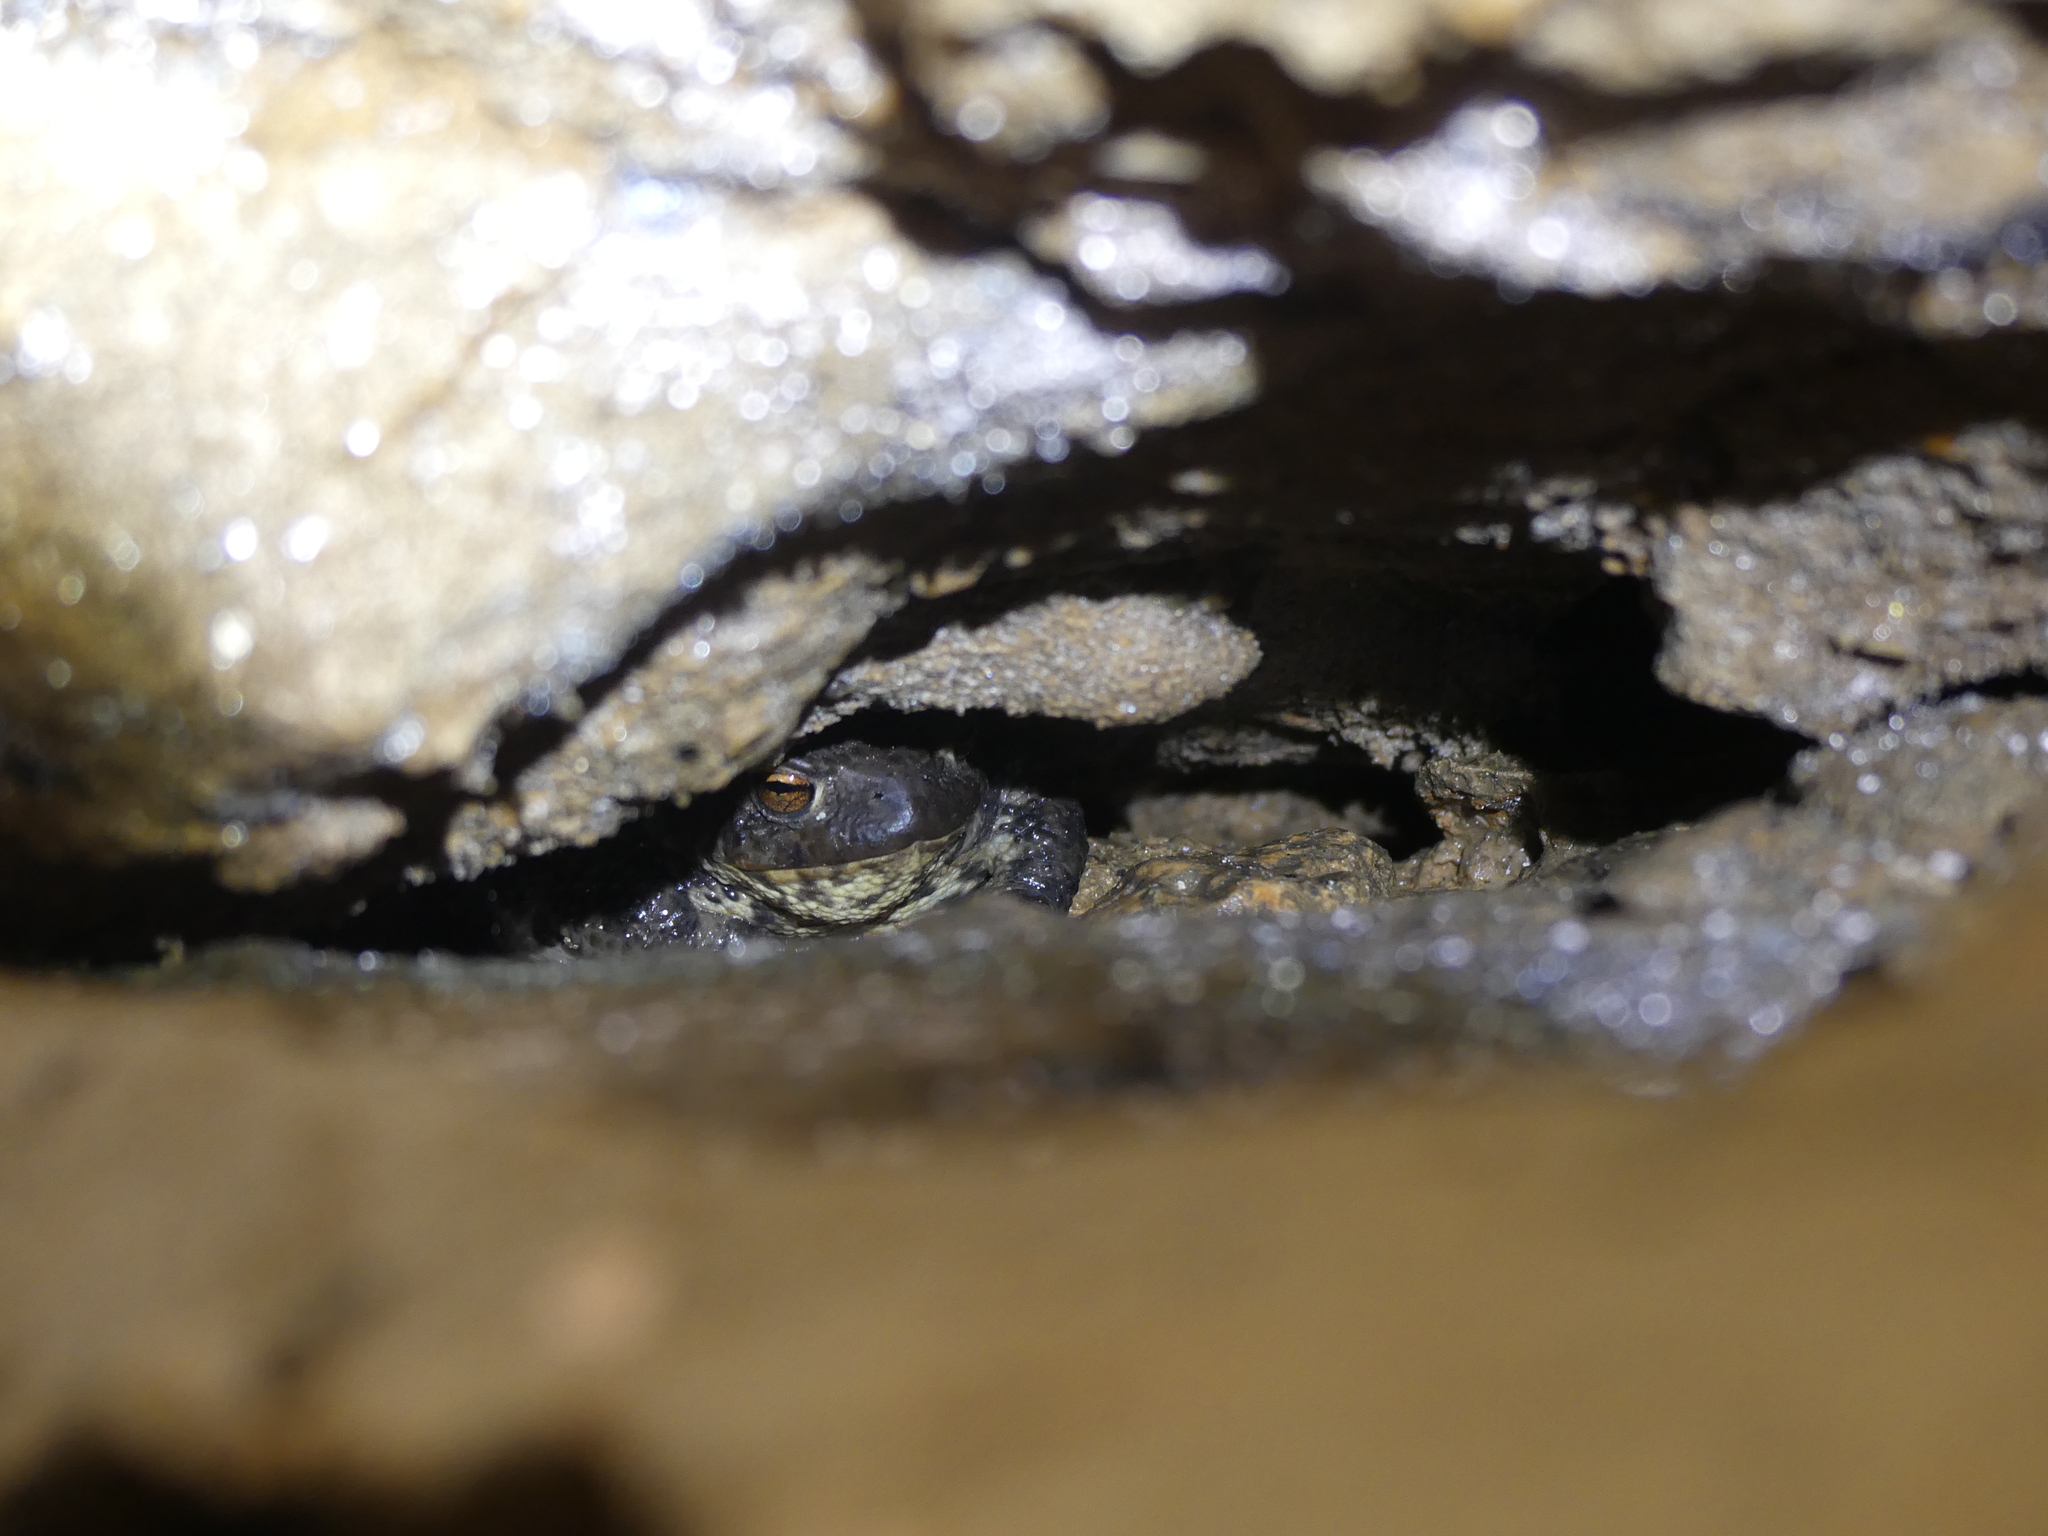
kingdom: Animalia
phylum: Chordata
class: Amphibia
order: Anura
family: Bufonidae
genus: Bufo
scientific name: Bufo bufo
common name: Common toad
